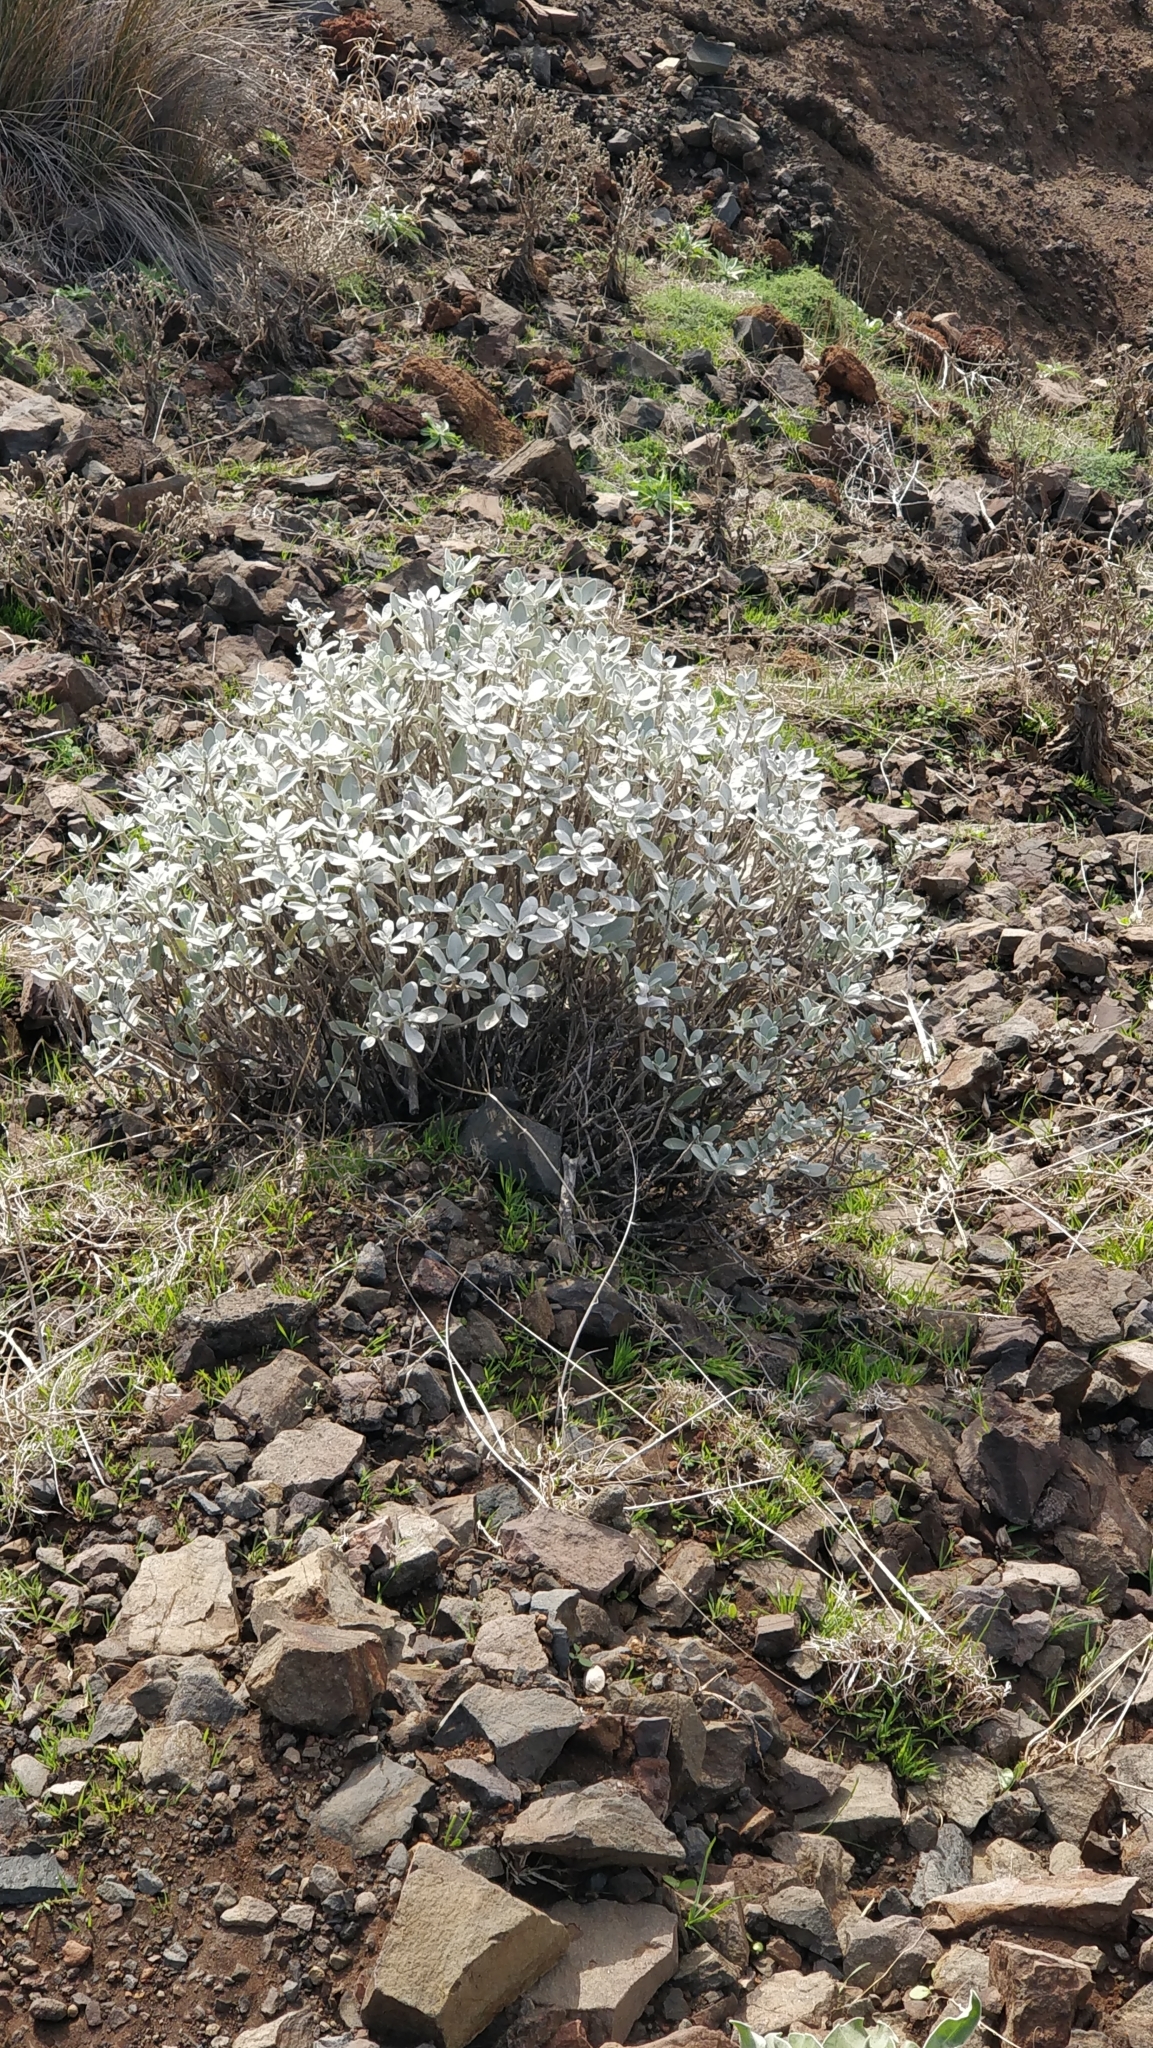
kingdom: Plantae
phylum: Tracheophyta
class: Magnoliopsida
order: Asterales
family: Asteraceae
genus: Helichrysum
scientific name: Helichrysum obconicum
